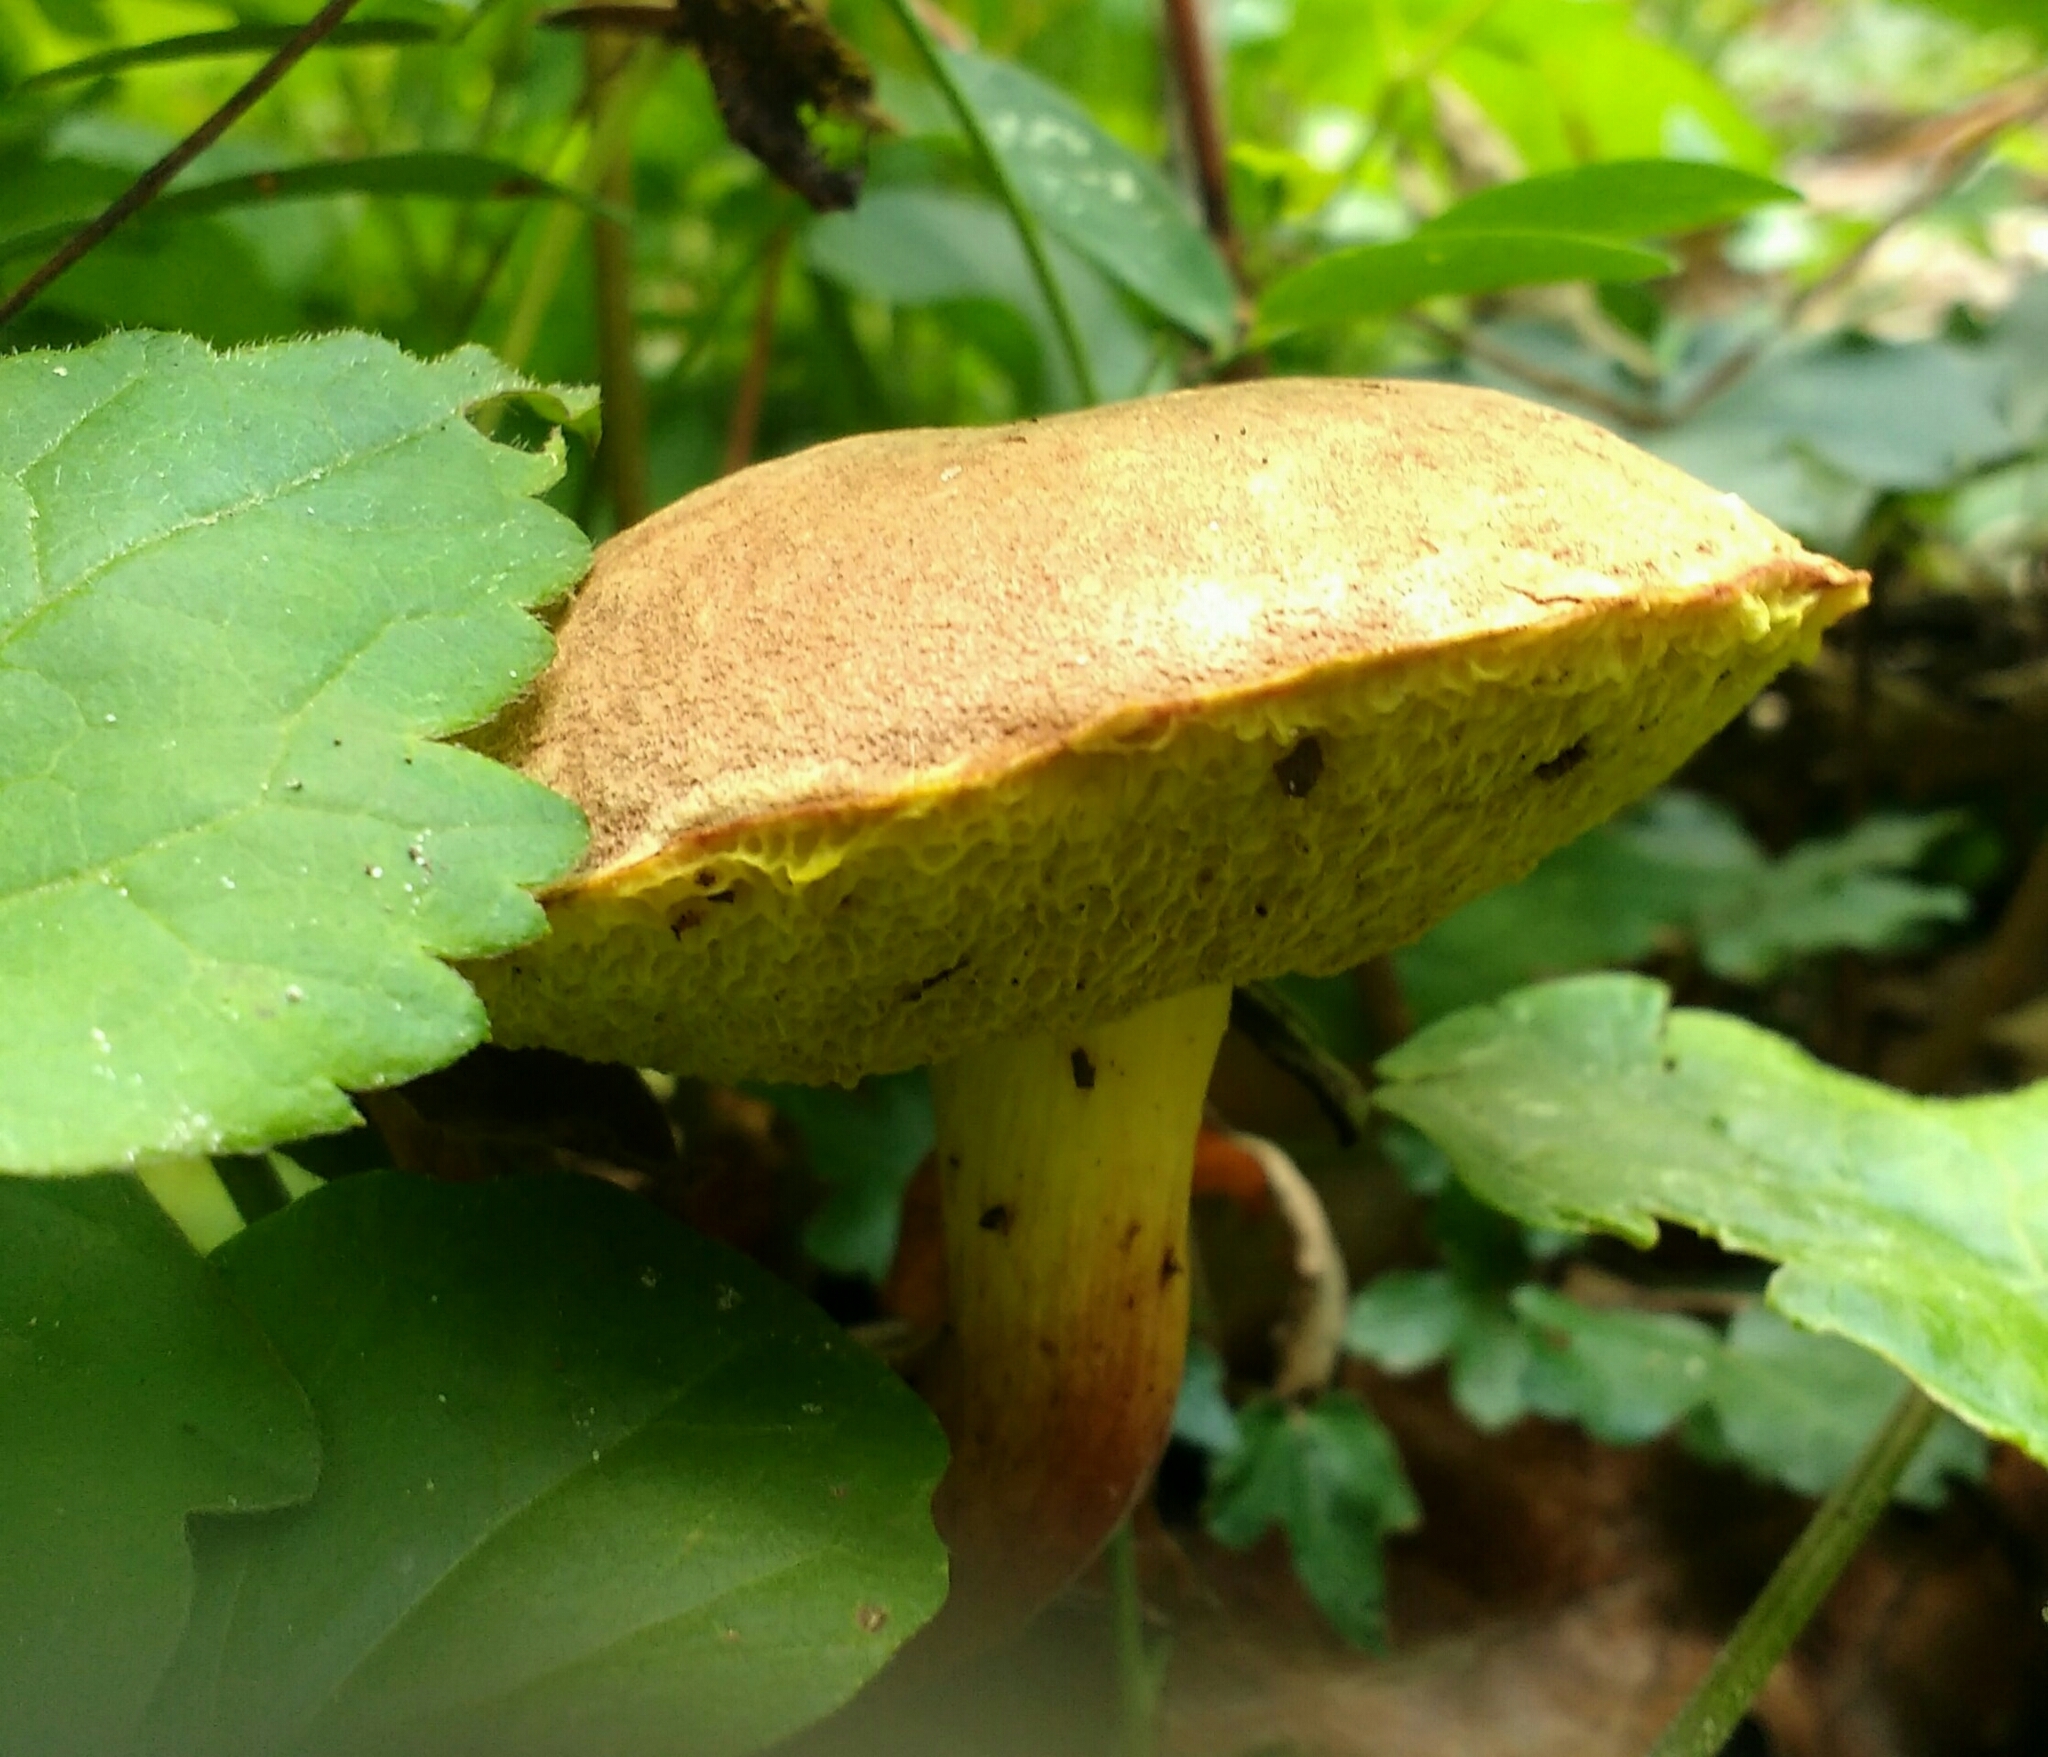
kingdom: Fungi
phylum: Basidiomycota
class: Agaricomycetes
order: Boletales
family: Boletaceae
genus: Xerocomus
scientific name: Xerocomus subtomentosus
